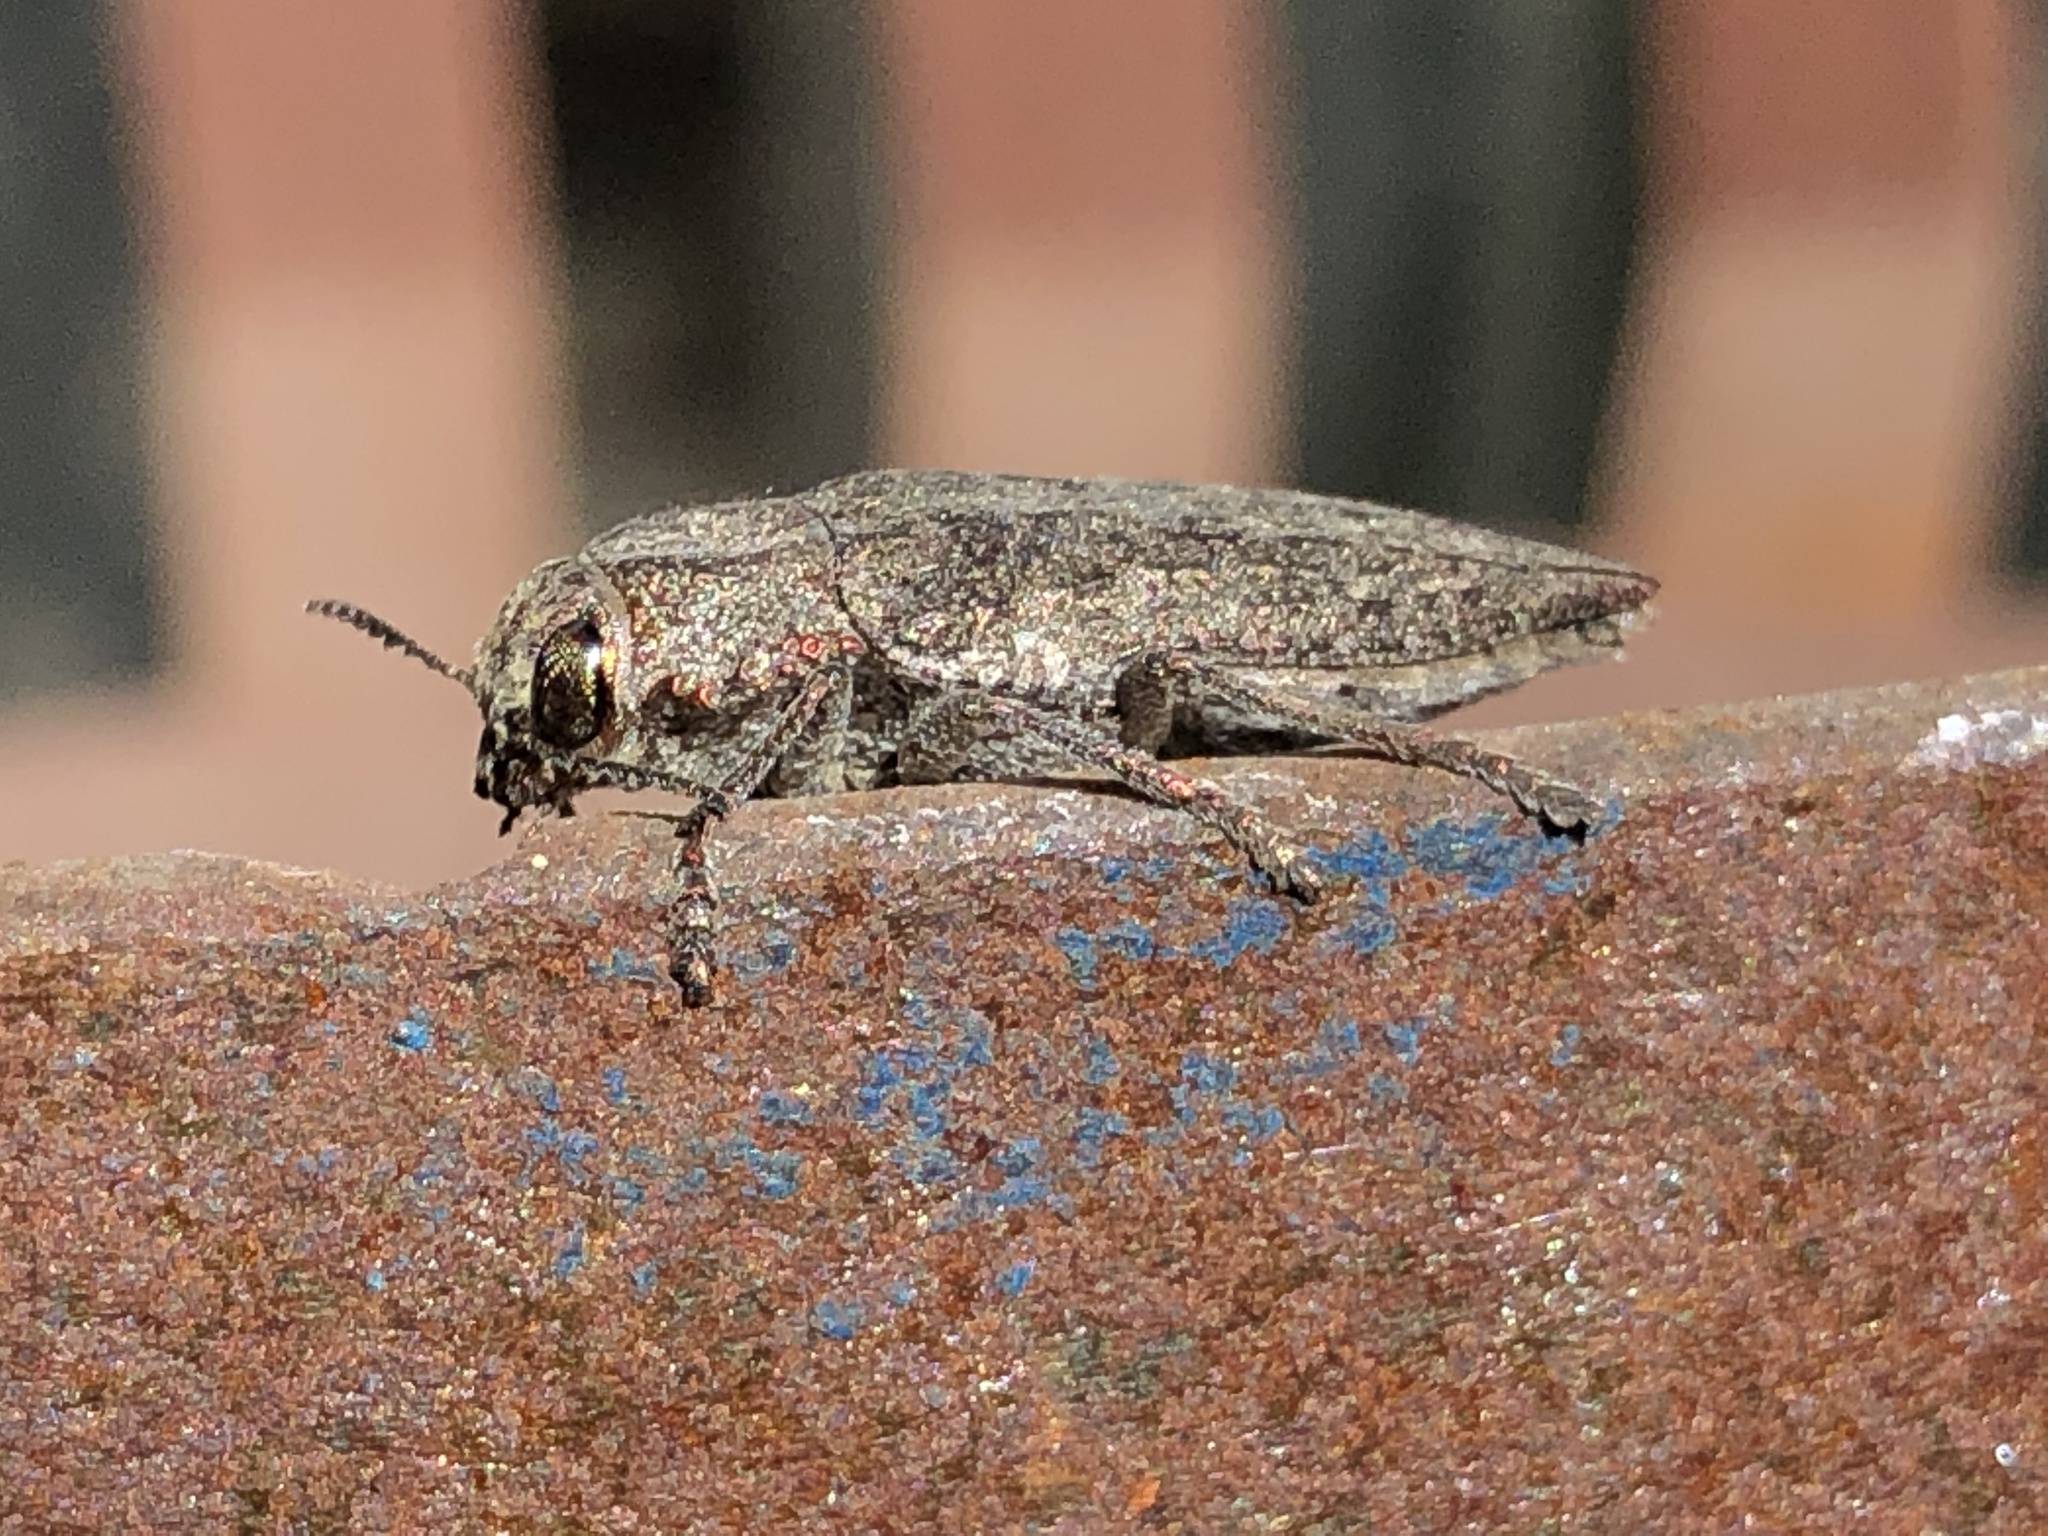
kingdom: Animalia
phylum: Arthropoda
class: Insecta
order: Coleoptera
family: Buprestidae
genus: Ectinogonia
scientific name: Ectinogonia buquetii
